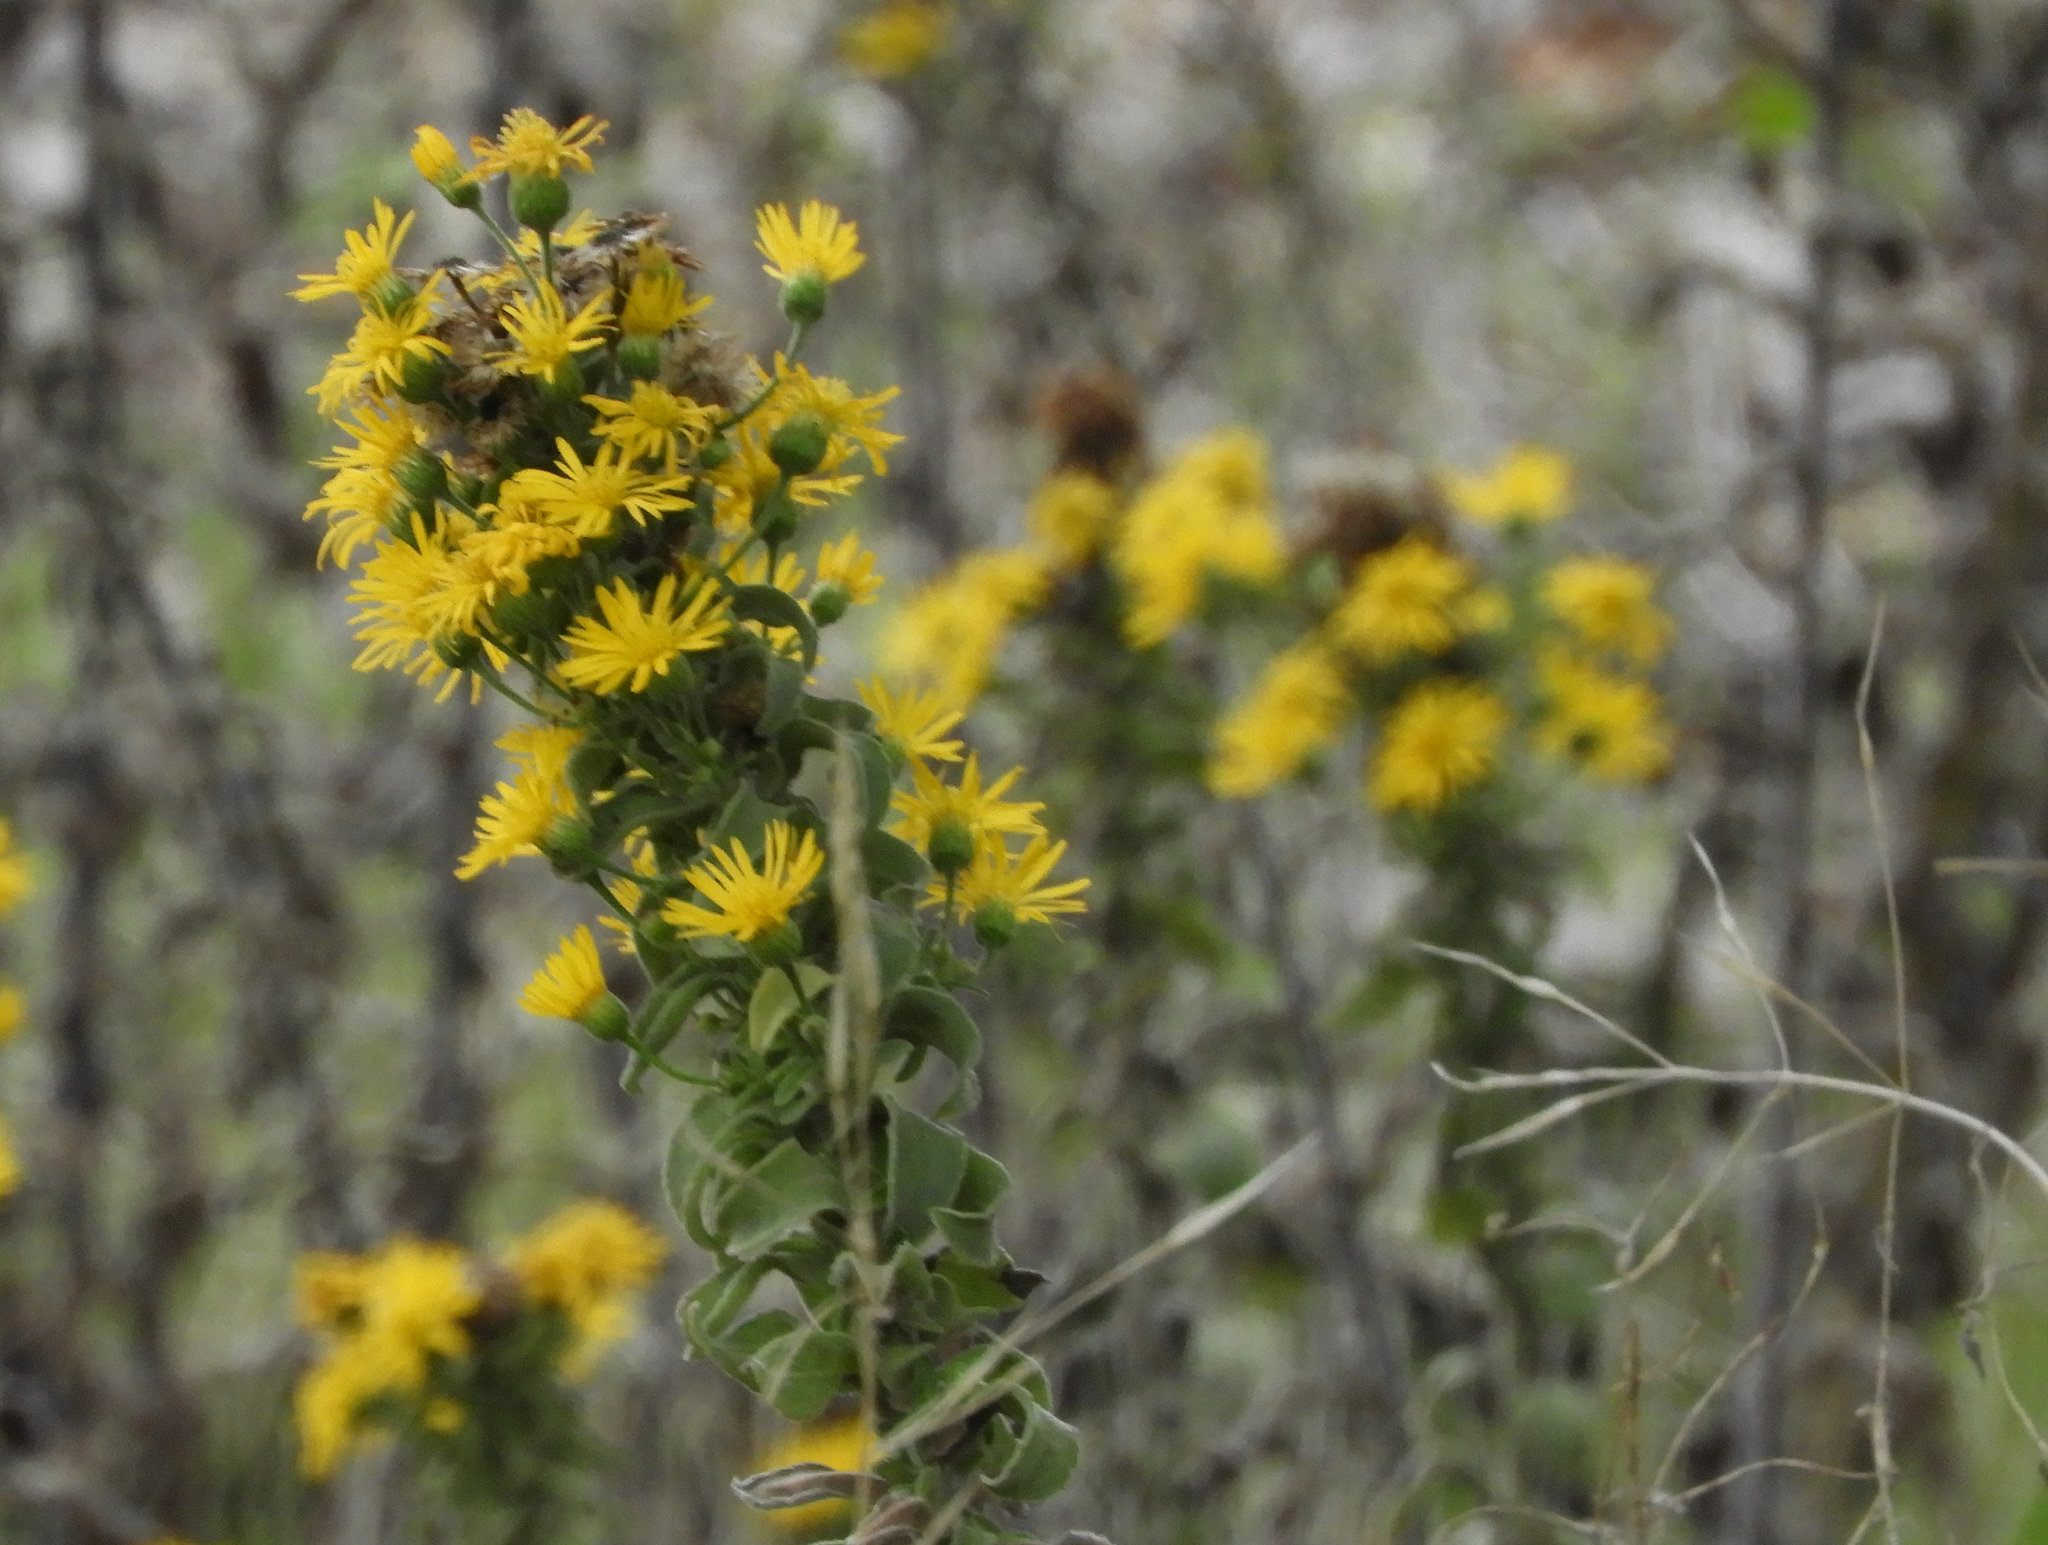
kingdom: Plantae
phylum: Tracheophyta
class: Magnoliopsida
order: Asterales
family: Asteraceae
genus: Heterotheca
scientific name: Heterotheca grandiflora
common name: Telegraphweed
